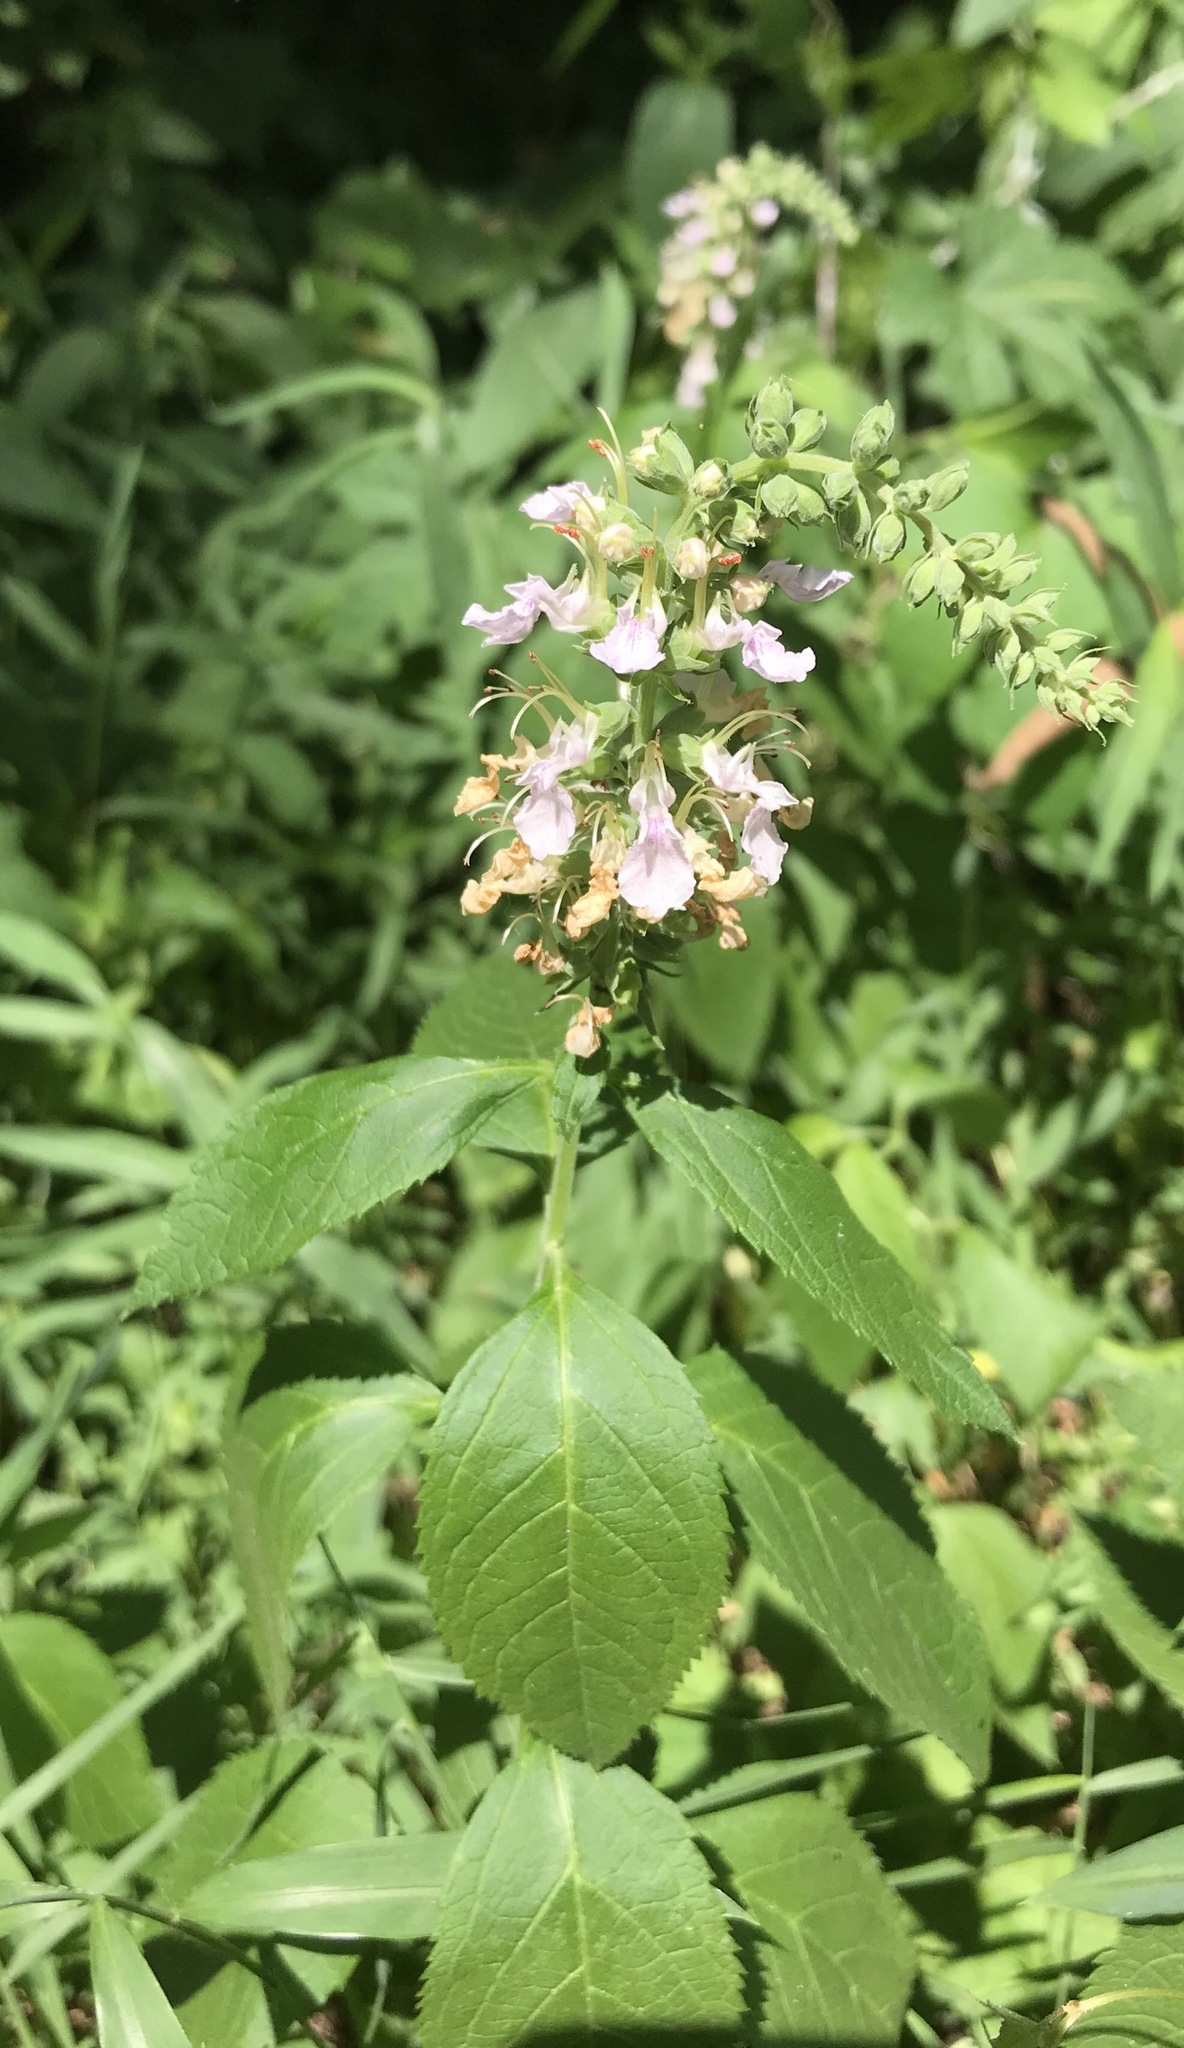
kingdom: Plantae
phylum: Tracheophyta
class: Magnoliopsida
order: Lamiales
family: Lamiaceae
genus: Teucrium
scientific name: Teucrium canadense
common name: American germander
